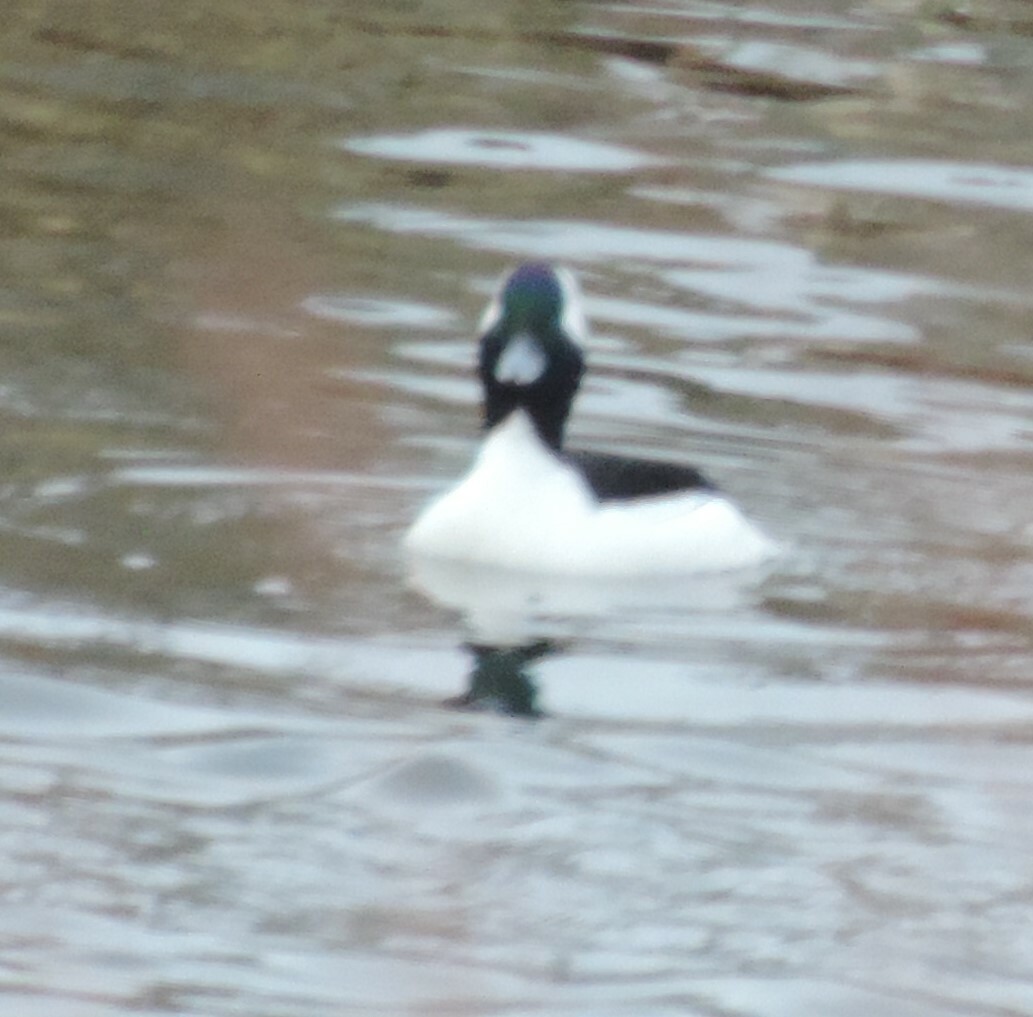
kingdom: Animalia
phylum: Chordata
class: Aves
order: Anseriformes
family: Anatidae
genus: Bucephala
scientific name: Bucephala albeola
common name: Bufflehead
